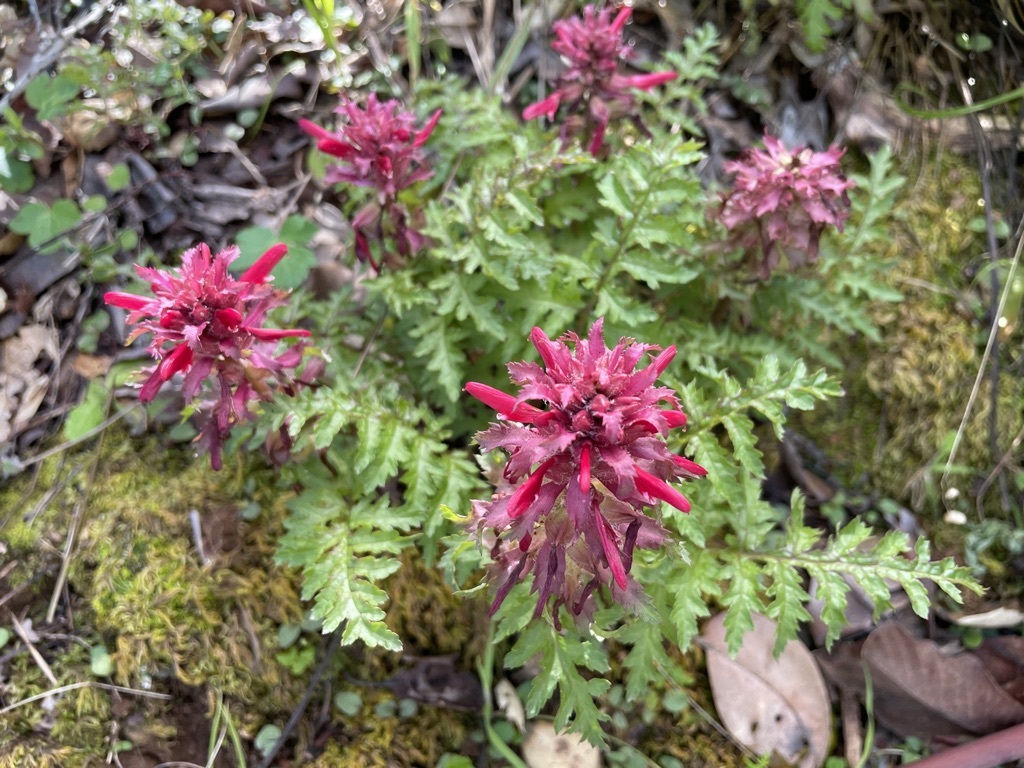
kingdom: Plantae
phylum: Tracheophyta
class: Magnoliopsida
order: Lamiales
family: Orobanchaceae
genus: Pedicularis
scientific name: Pedicularis densiflora
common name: Indian warrior
